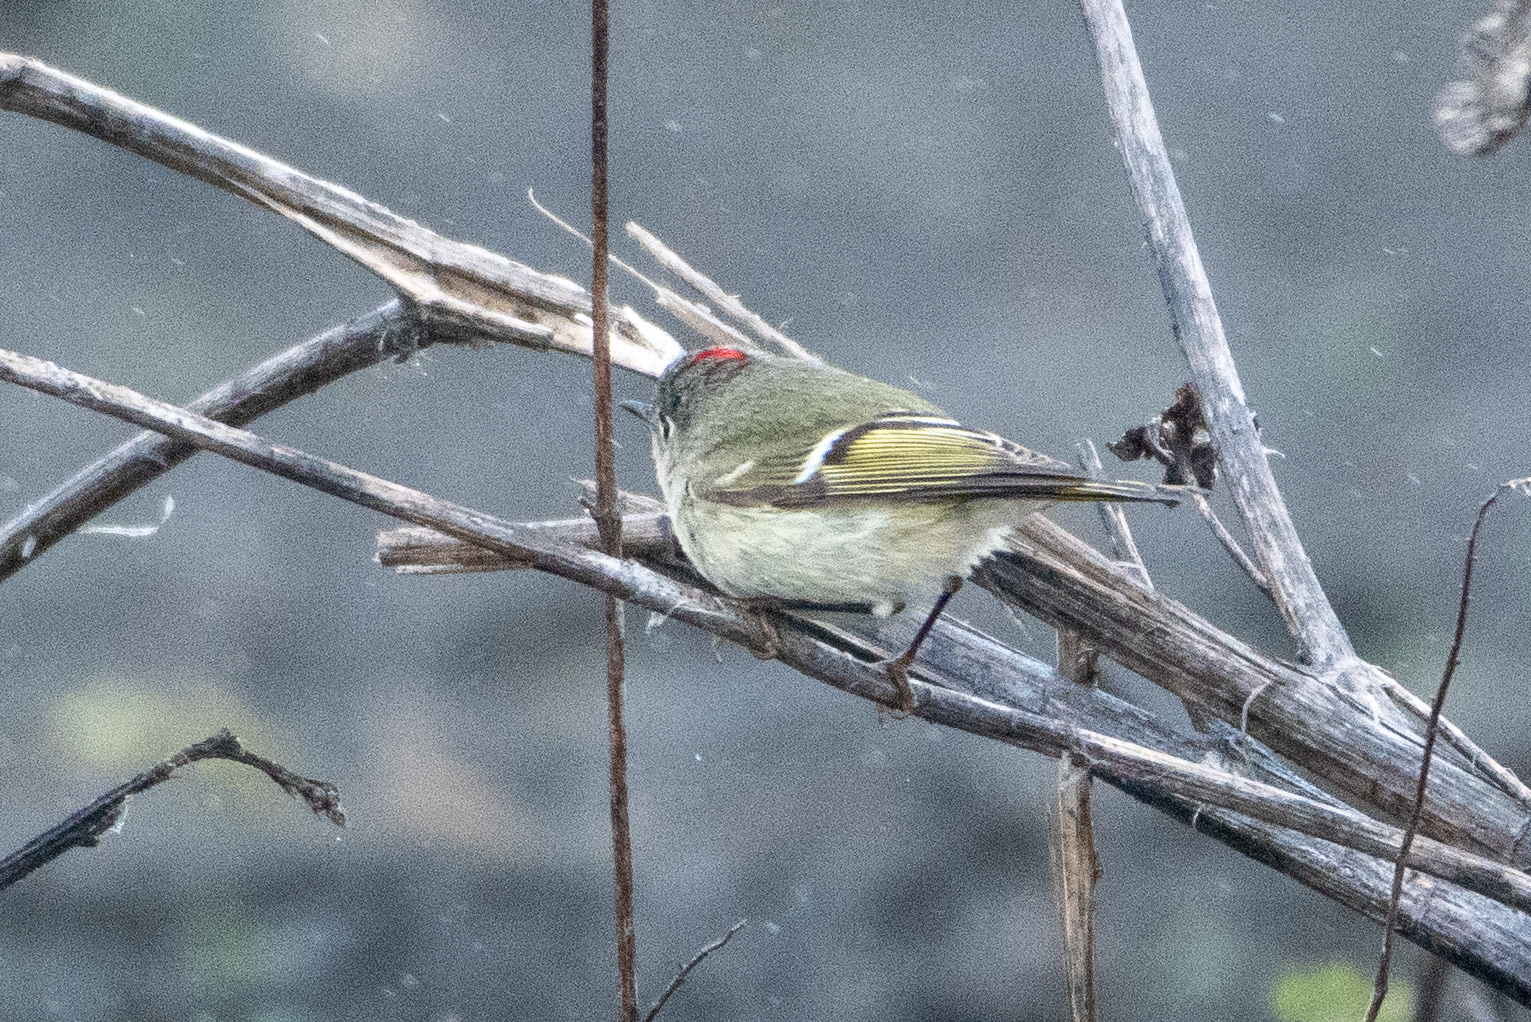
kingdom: Animalia
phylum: Chordata
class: Aves
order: Passeriformes
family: Regulidae
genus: Regulus
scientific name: Regulus calendula
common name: Ruby-crowned kinglet
